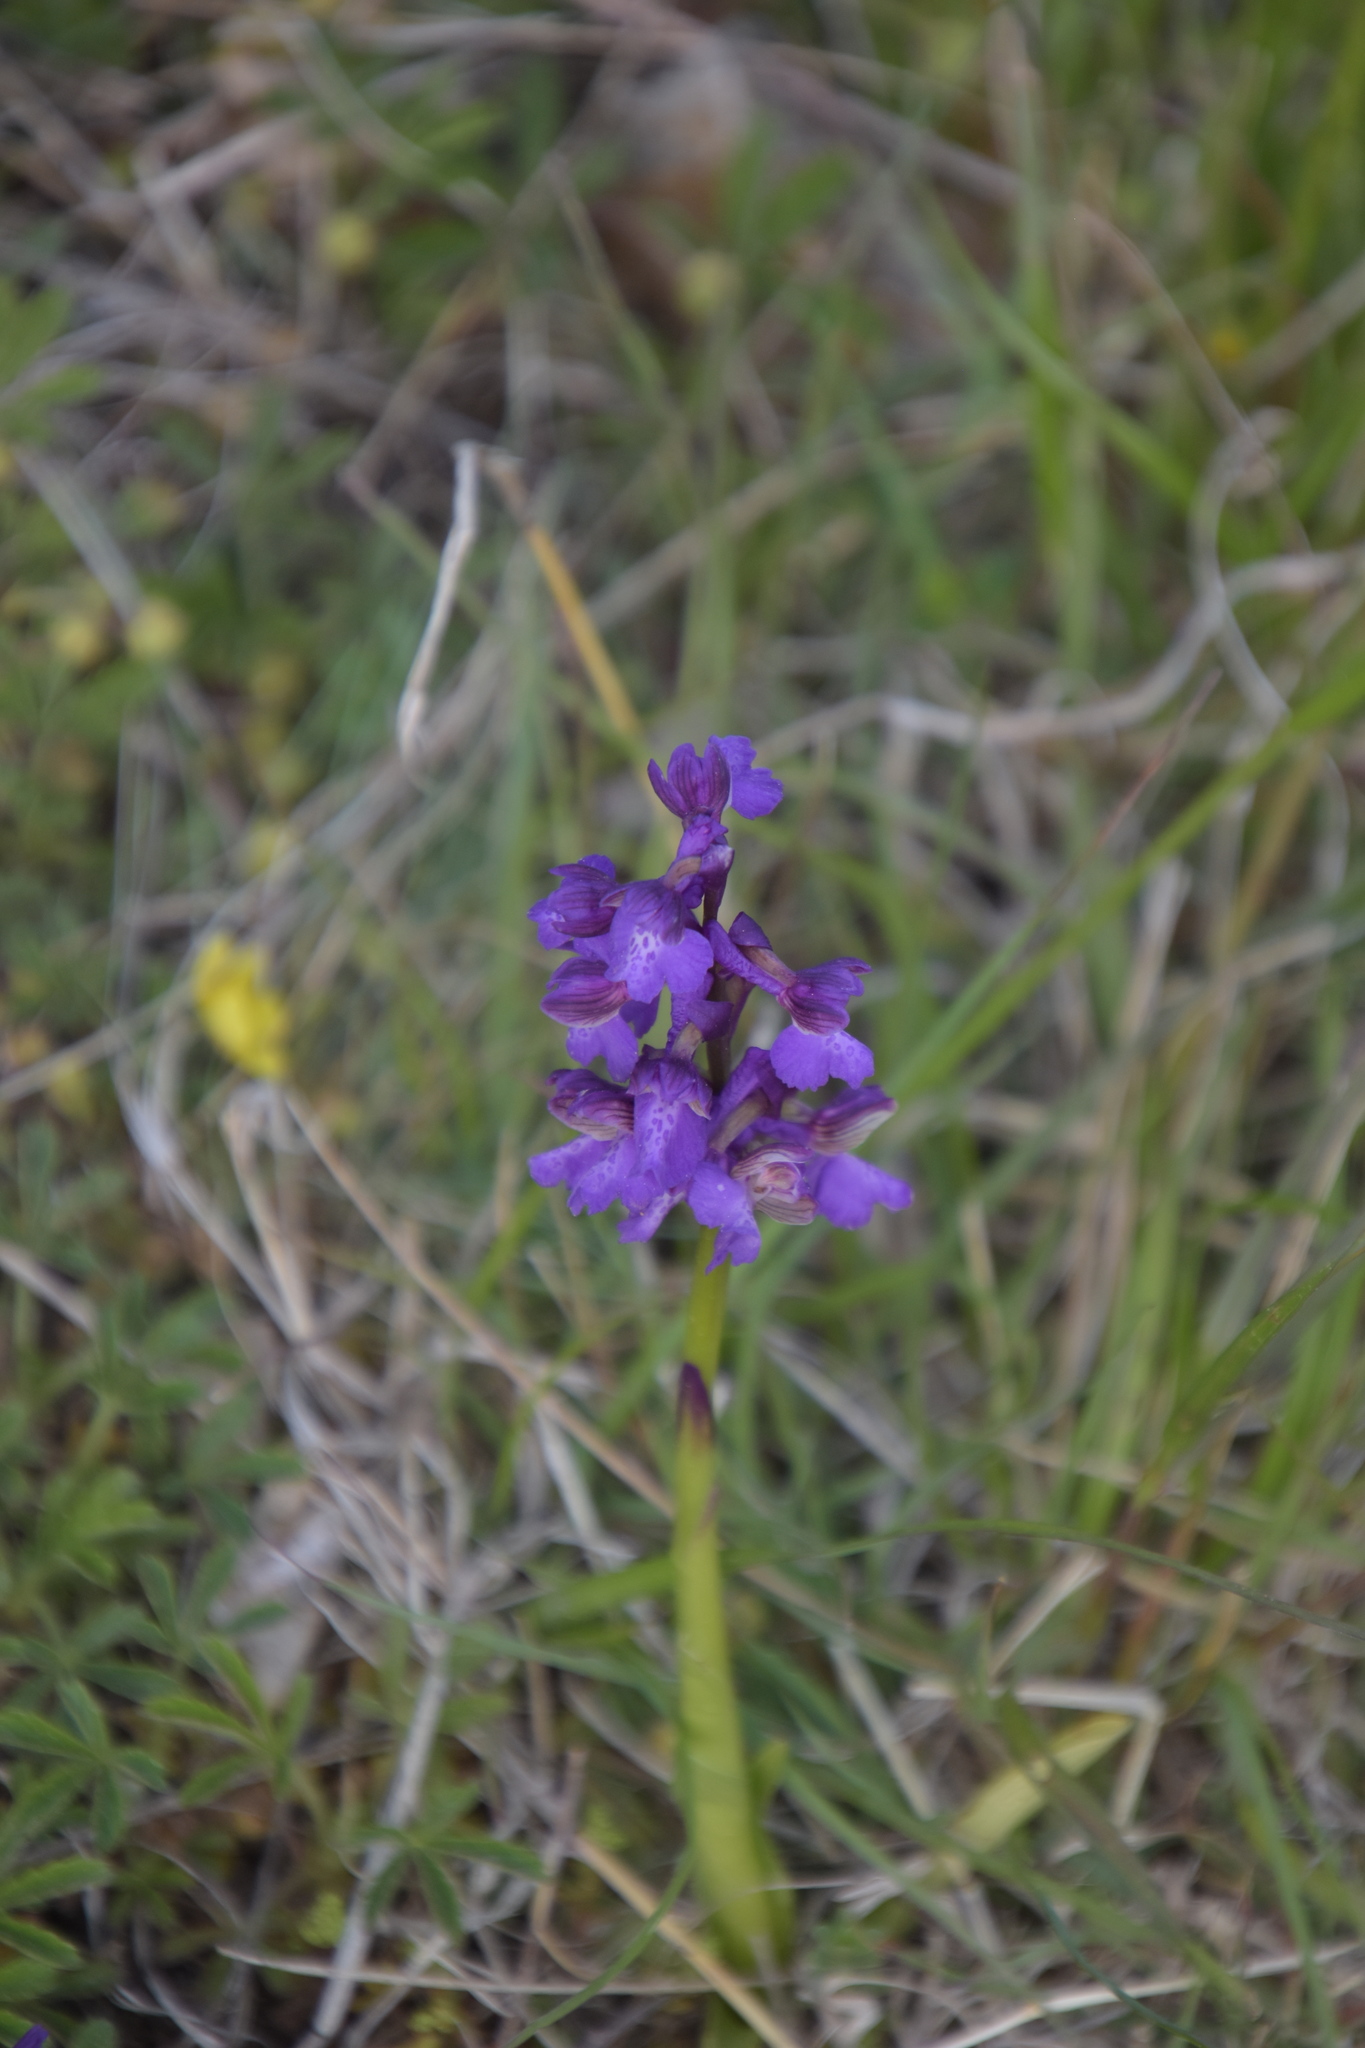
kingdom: Plantae
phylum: Tracheophyta
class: Liliopsida
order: Asparagales
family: Orchidaceae
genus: Anacamptis
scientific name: Anacamptis morio
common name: Green-winged orchid
